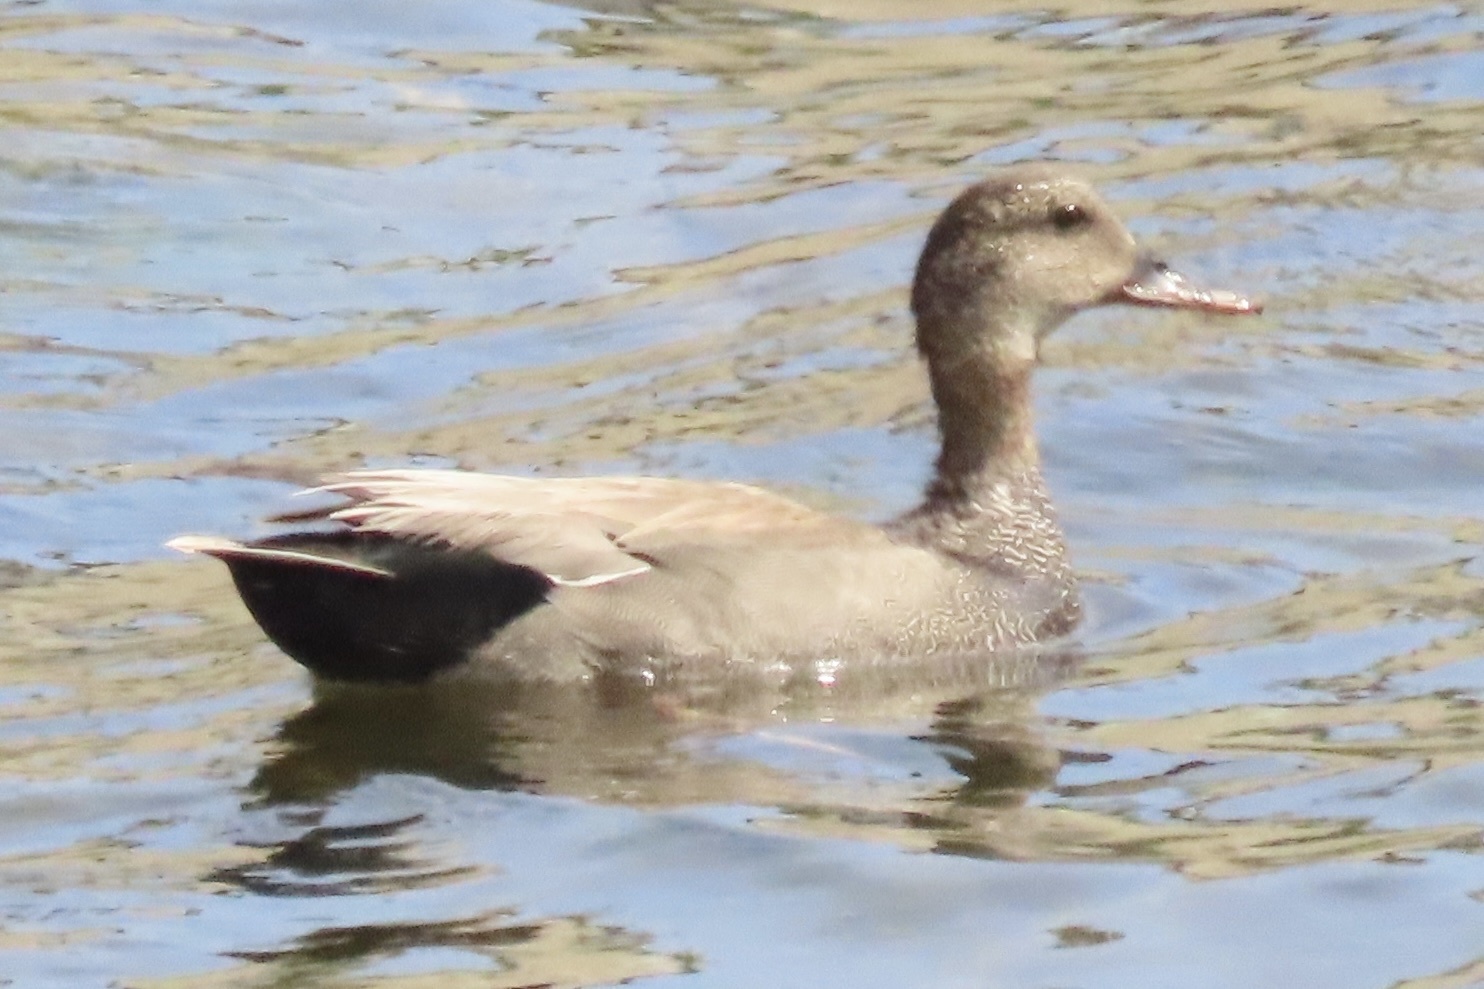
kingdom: Animalia
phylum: Chordata
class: Aves
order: Anseriformes
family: Anatidae
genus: Mareca
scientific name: Mareca strepera
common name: Gadwall
